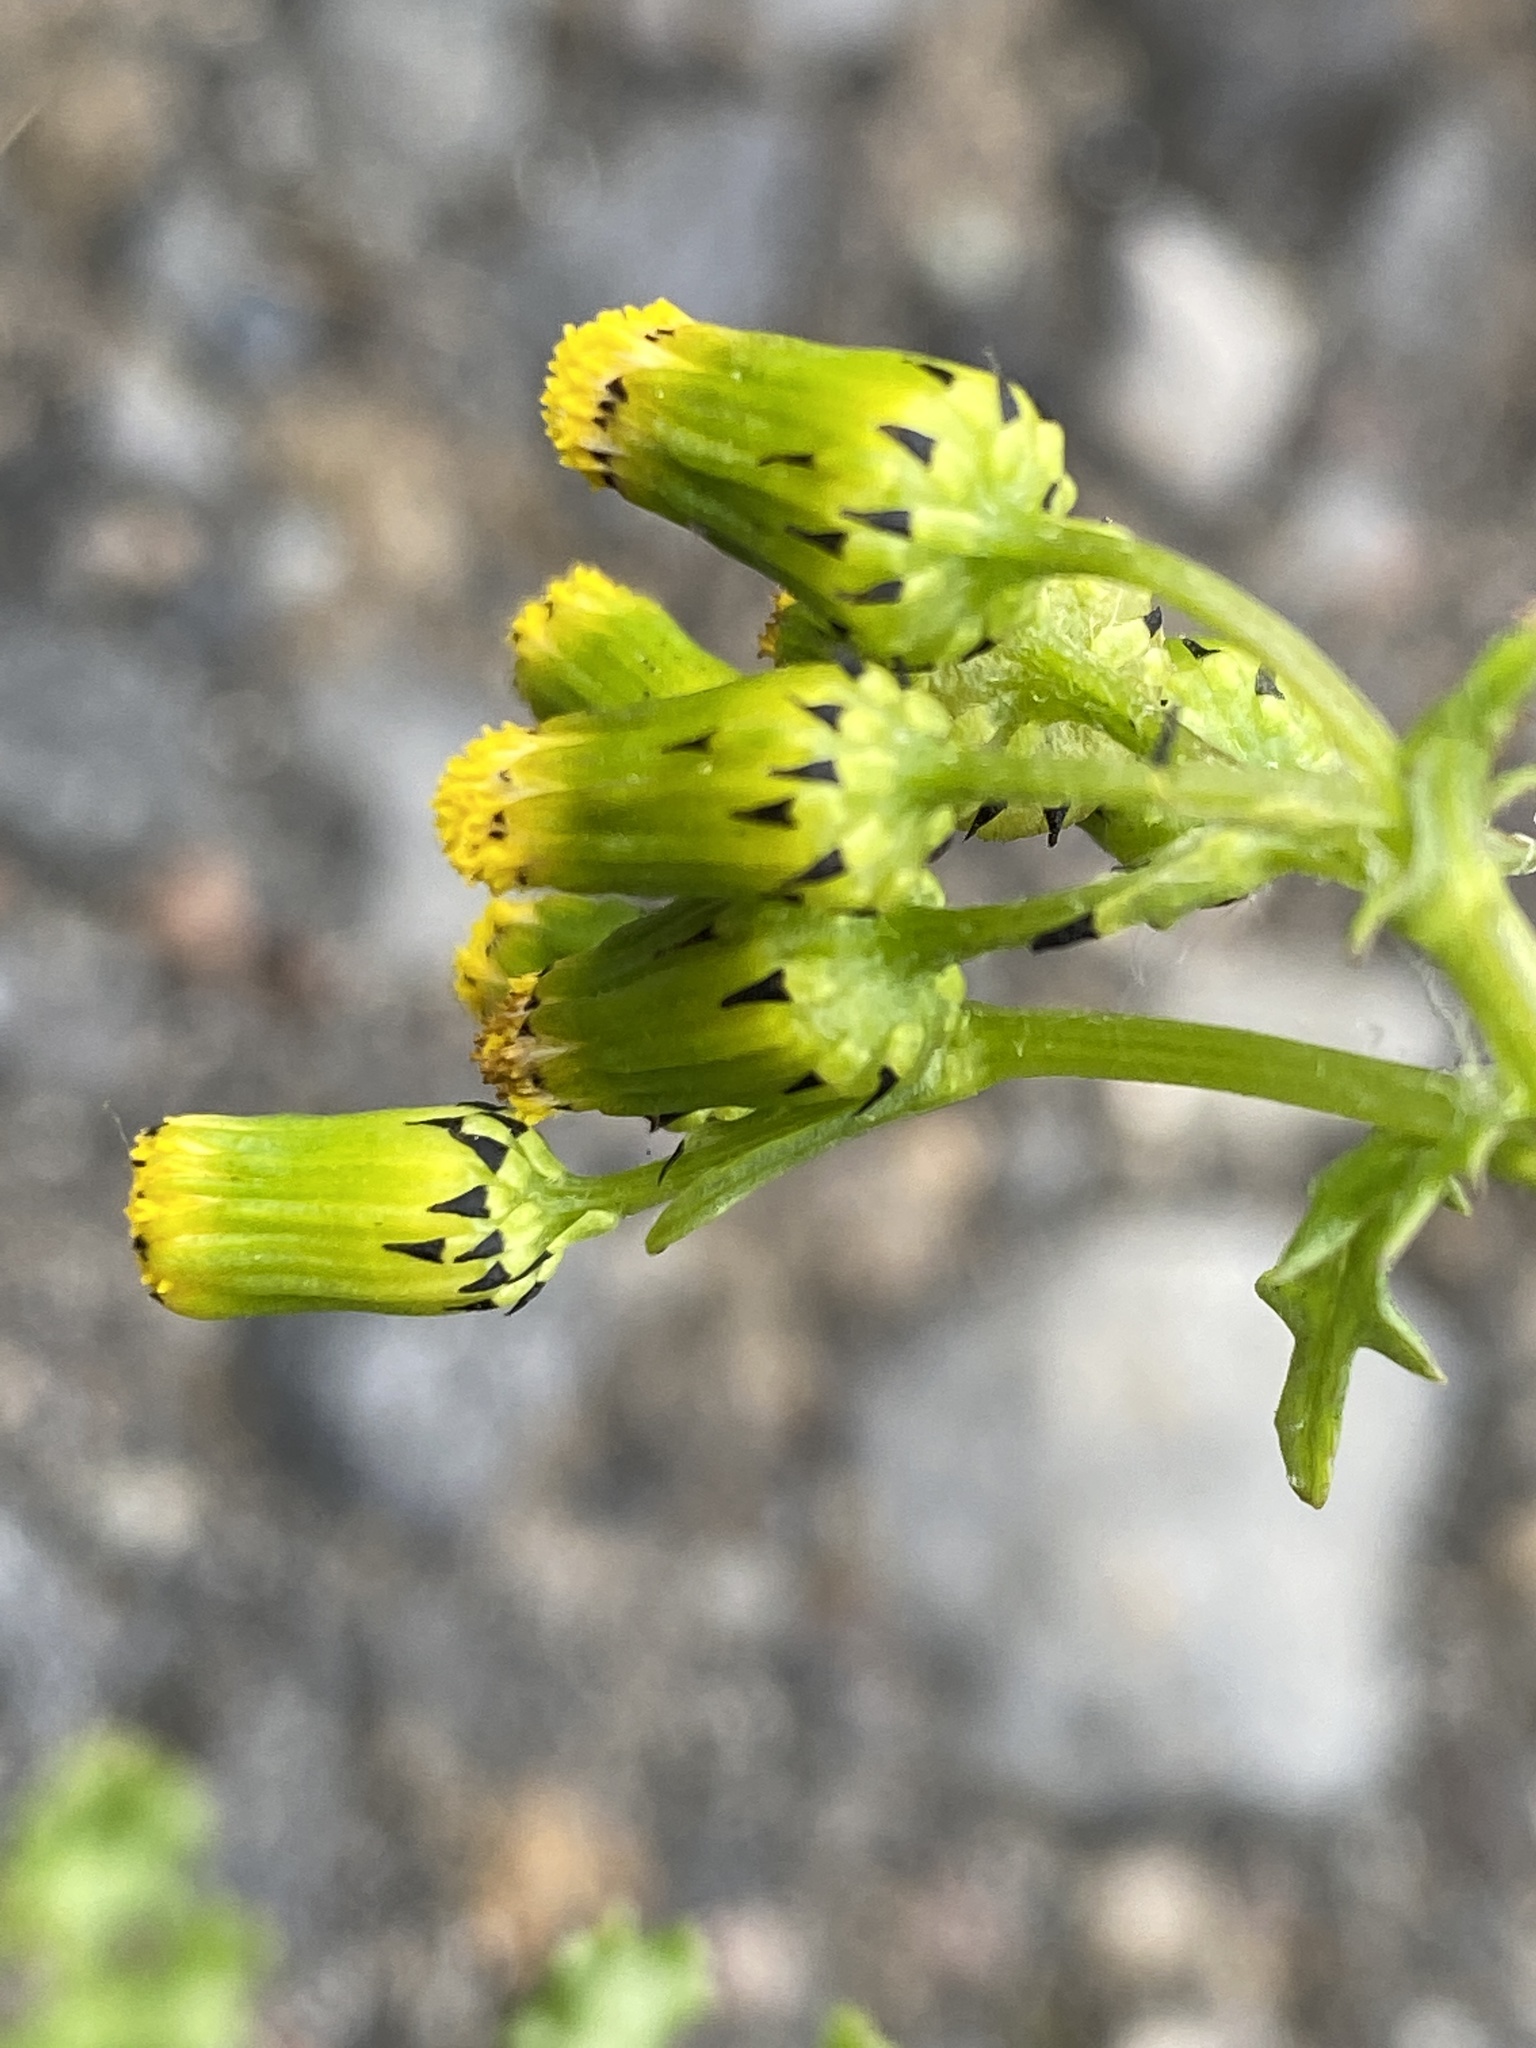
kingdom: Plantae
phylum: Tracheophyta
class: Magnoliopsida
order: Asterales
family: Asteraceae
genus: Senecio
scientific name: Senecio vulgaris
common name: Old-man-in-the-spring
